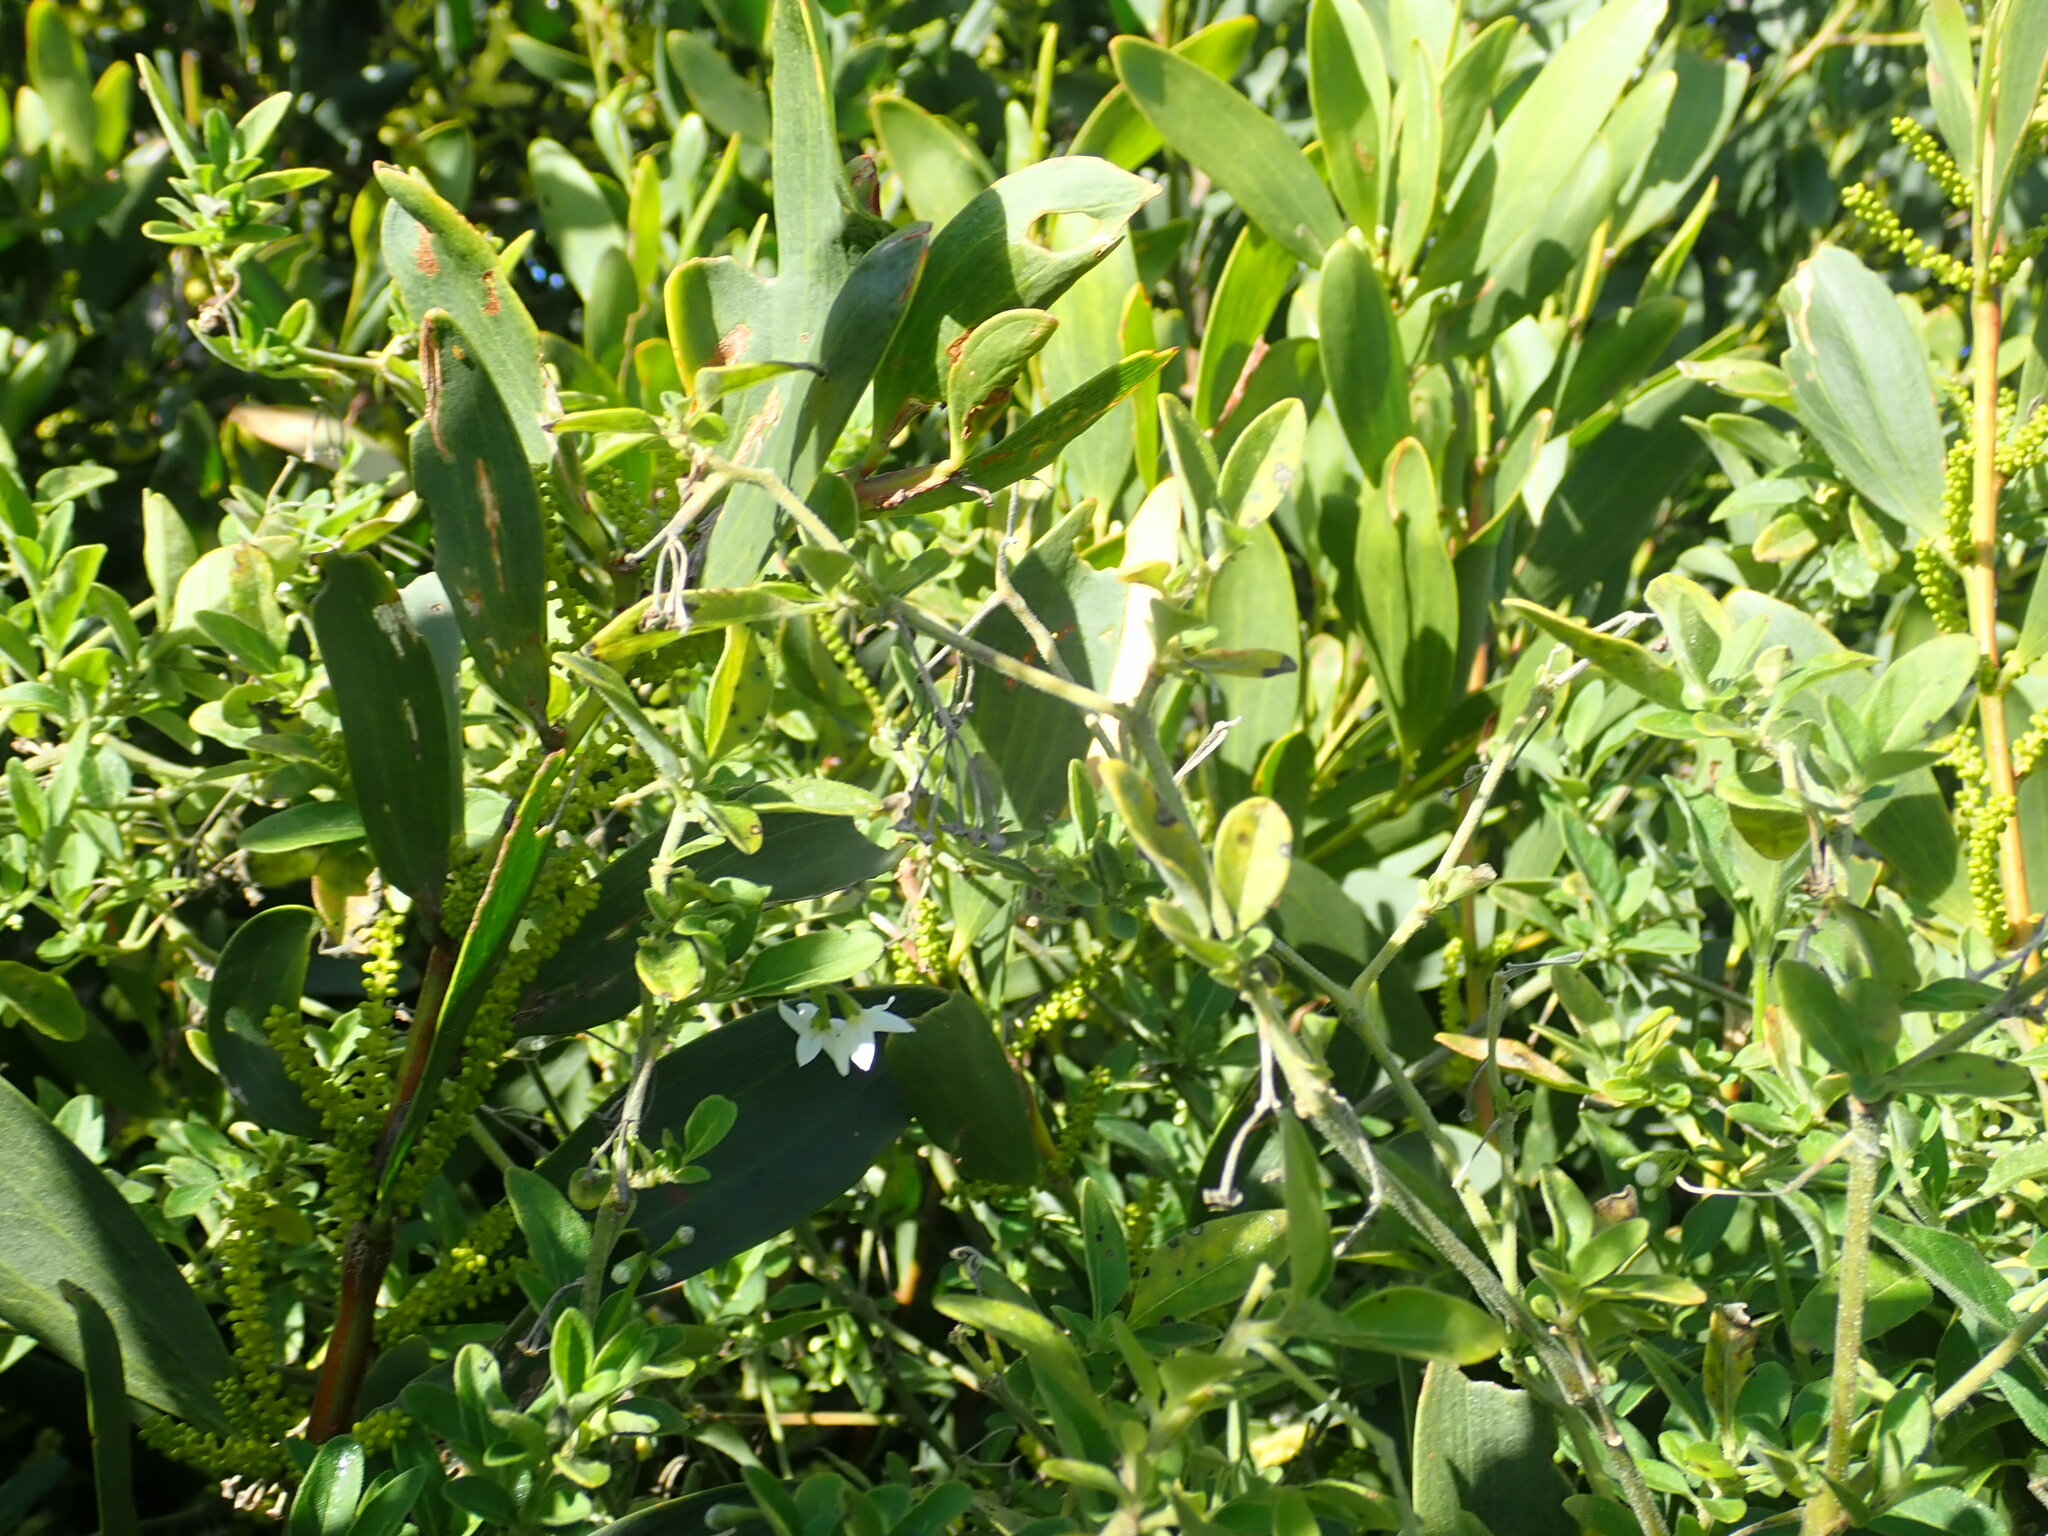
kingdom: Plantae
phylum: Tracheophyta
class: Magnoliopsida
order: Solanales
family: Solanaceae
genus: Solanum
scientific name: Solanum chenopodioides
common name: Tall nightshade
